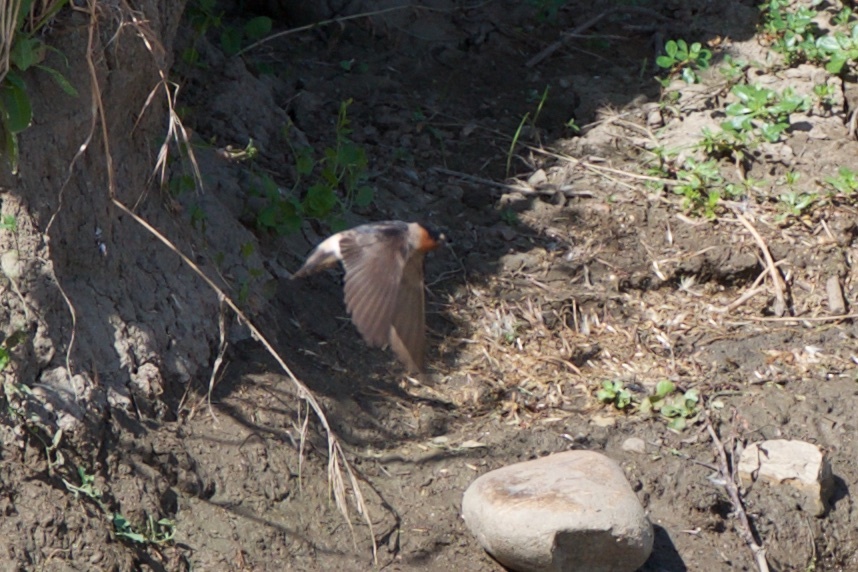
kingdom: Animalia
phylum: Chordata
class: Aves
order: Passeriformes
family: Hirundinidae
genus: Petrochelidon
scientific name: Petrochelidon pyrrhonota
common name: American cliff swallow
